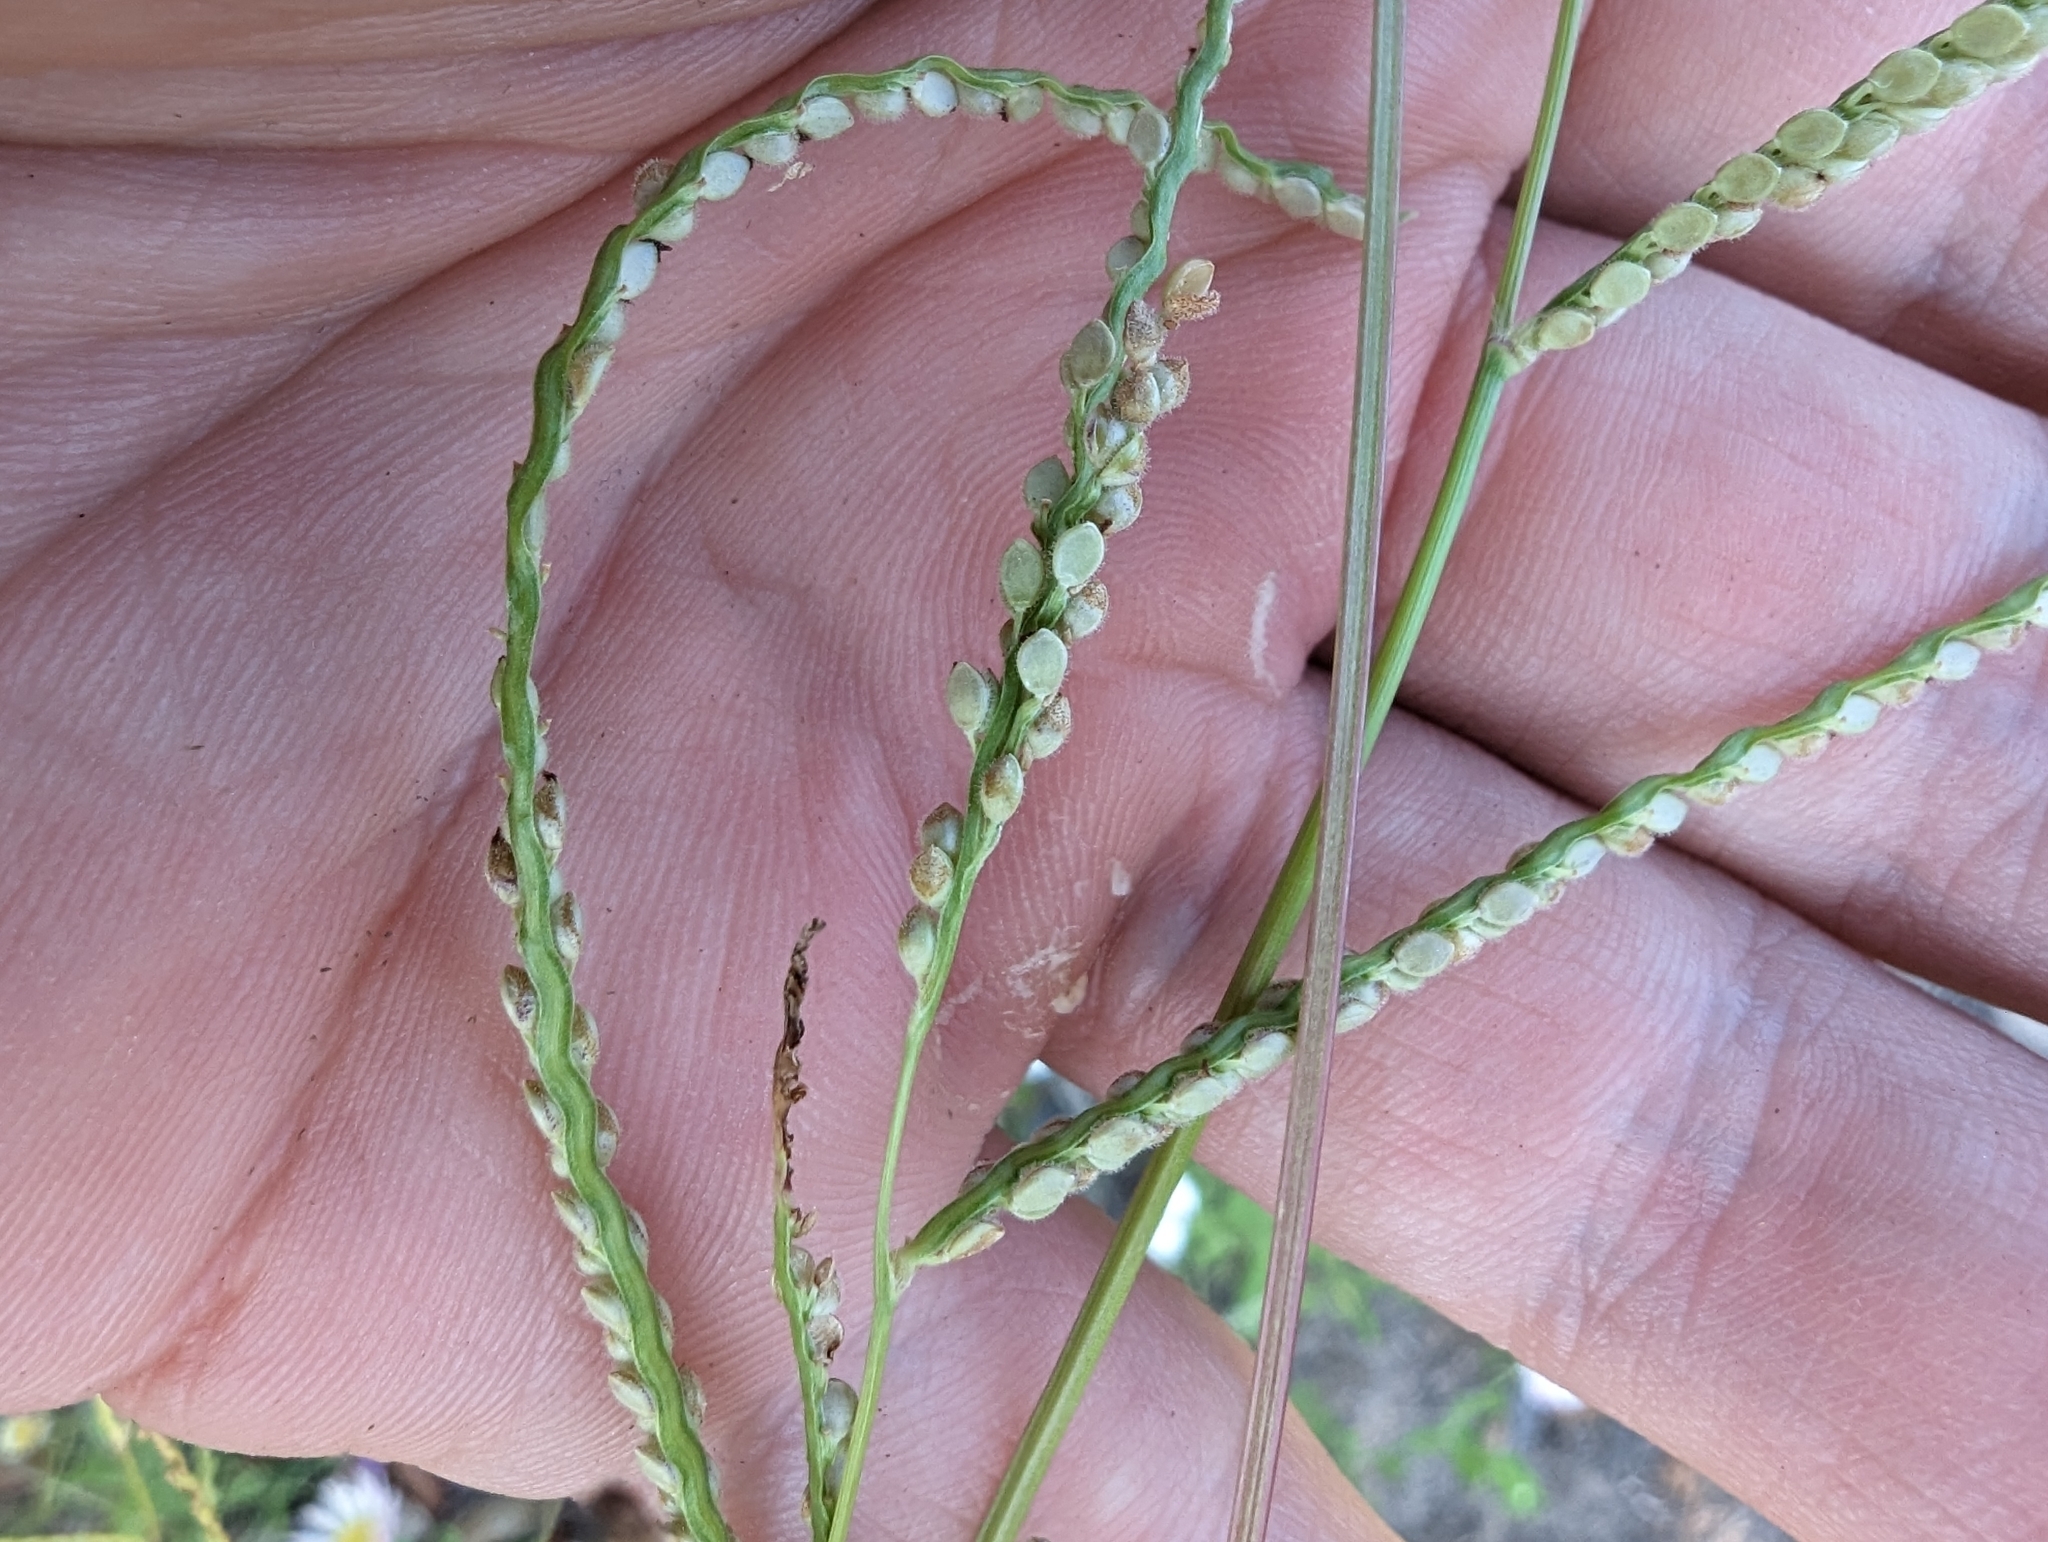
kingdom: Plantae
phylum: Tracheophyta
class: Liliopsida
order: Poales
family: Poaceae
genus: Paspalum
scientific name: Paspalum setaceum
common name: Slender paspalum
